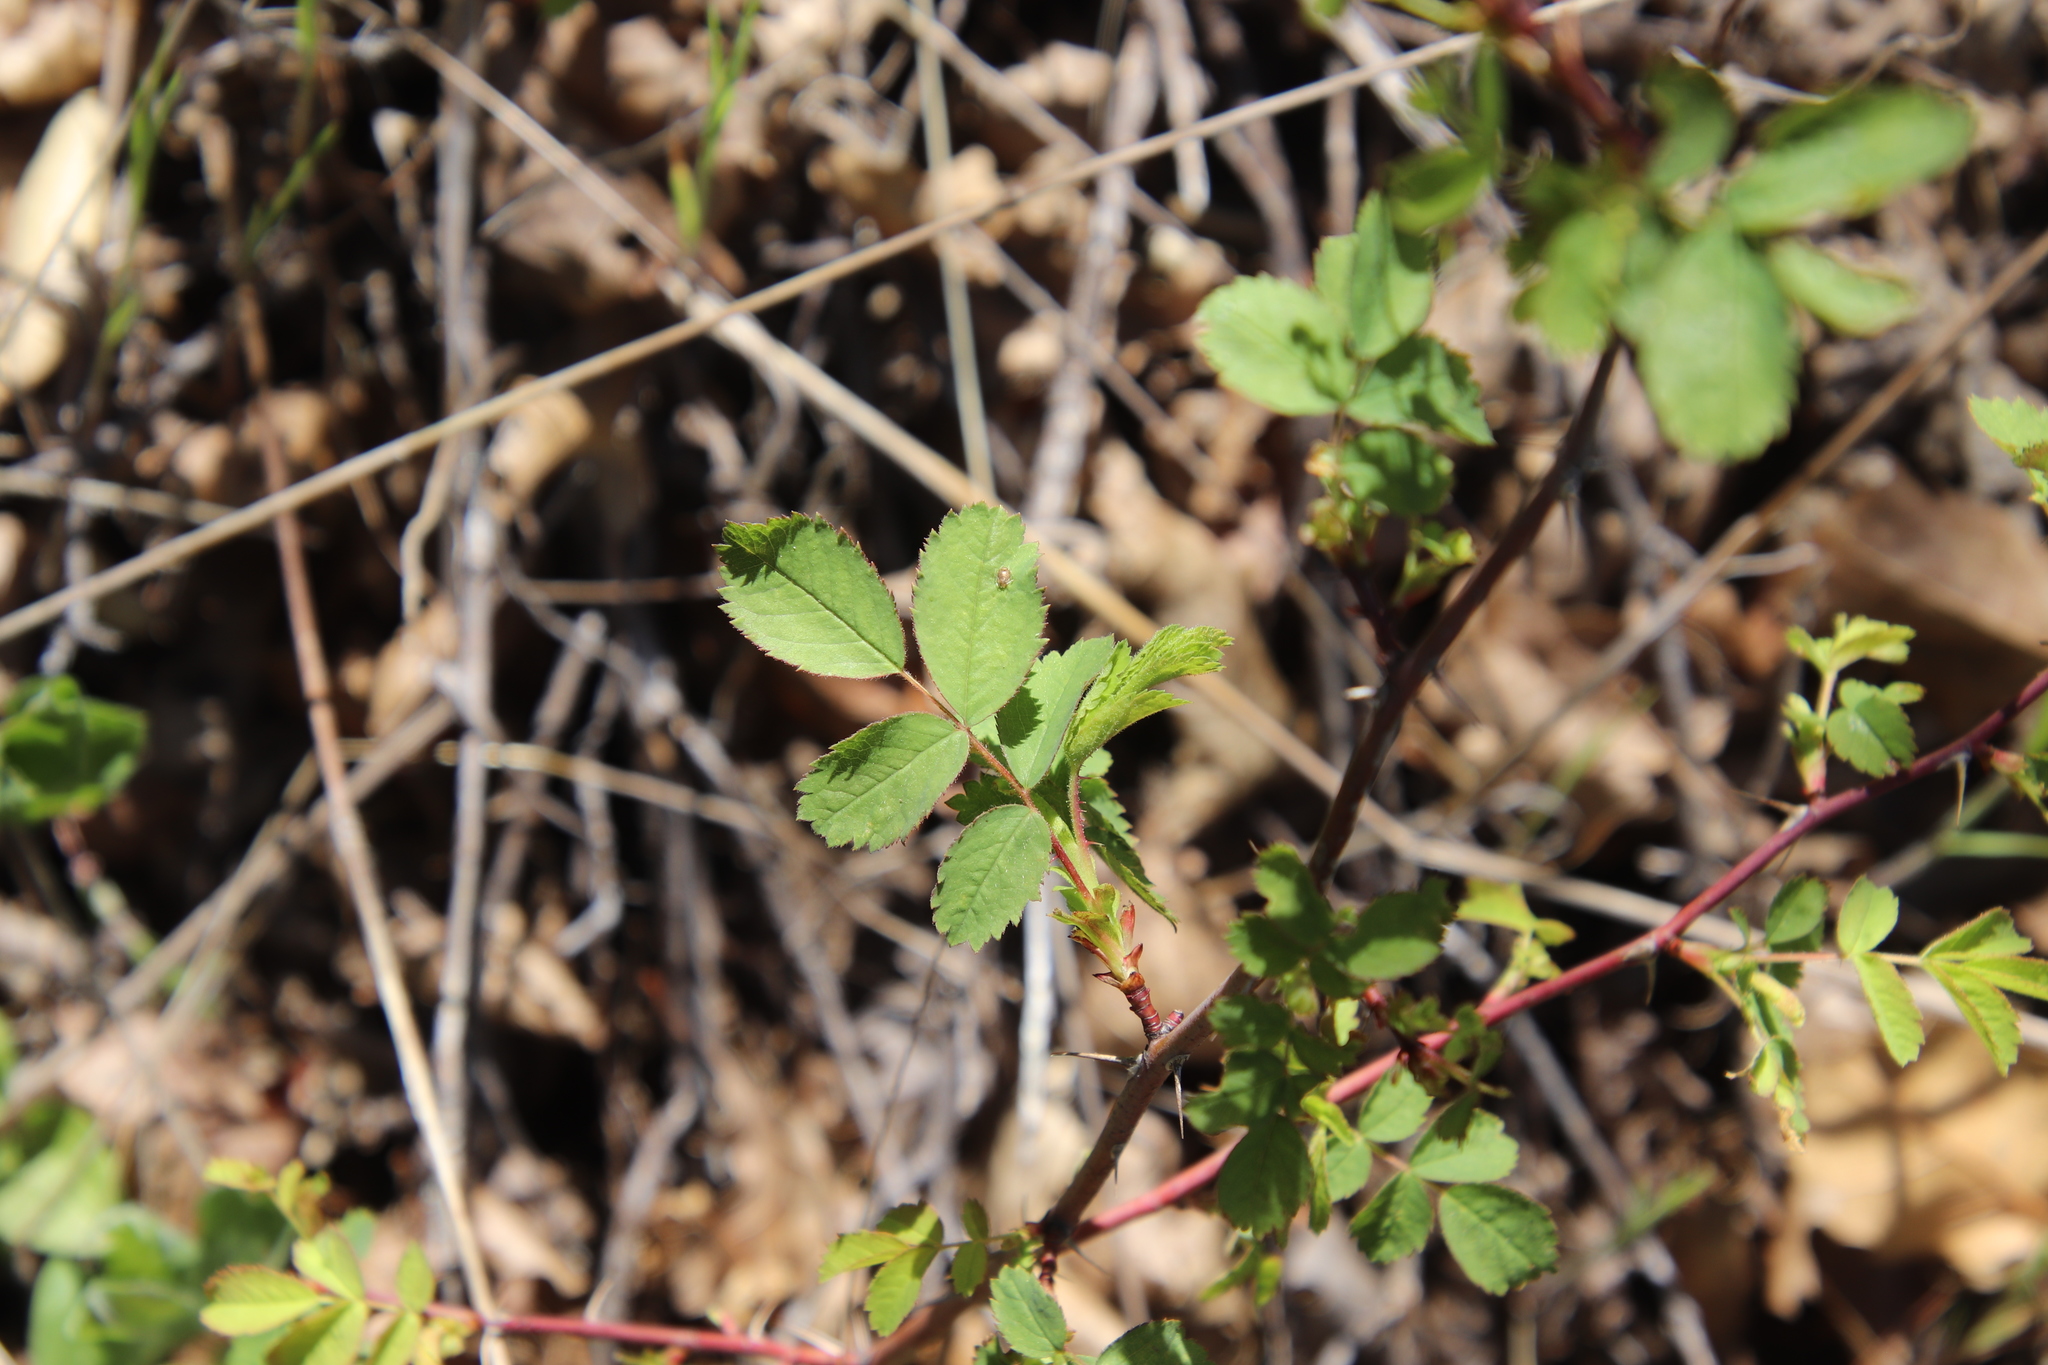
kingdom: Plantae
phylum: Tracheophyta
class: Magnoliopsida
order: Rosales
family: Rosaceae
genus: Rosa
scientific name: Rosa californica
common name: California rose
